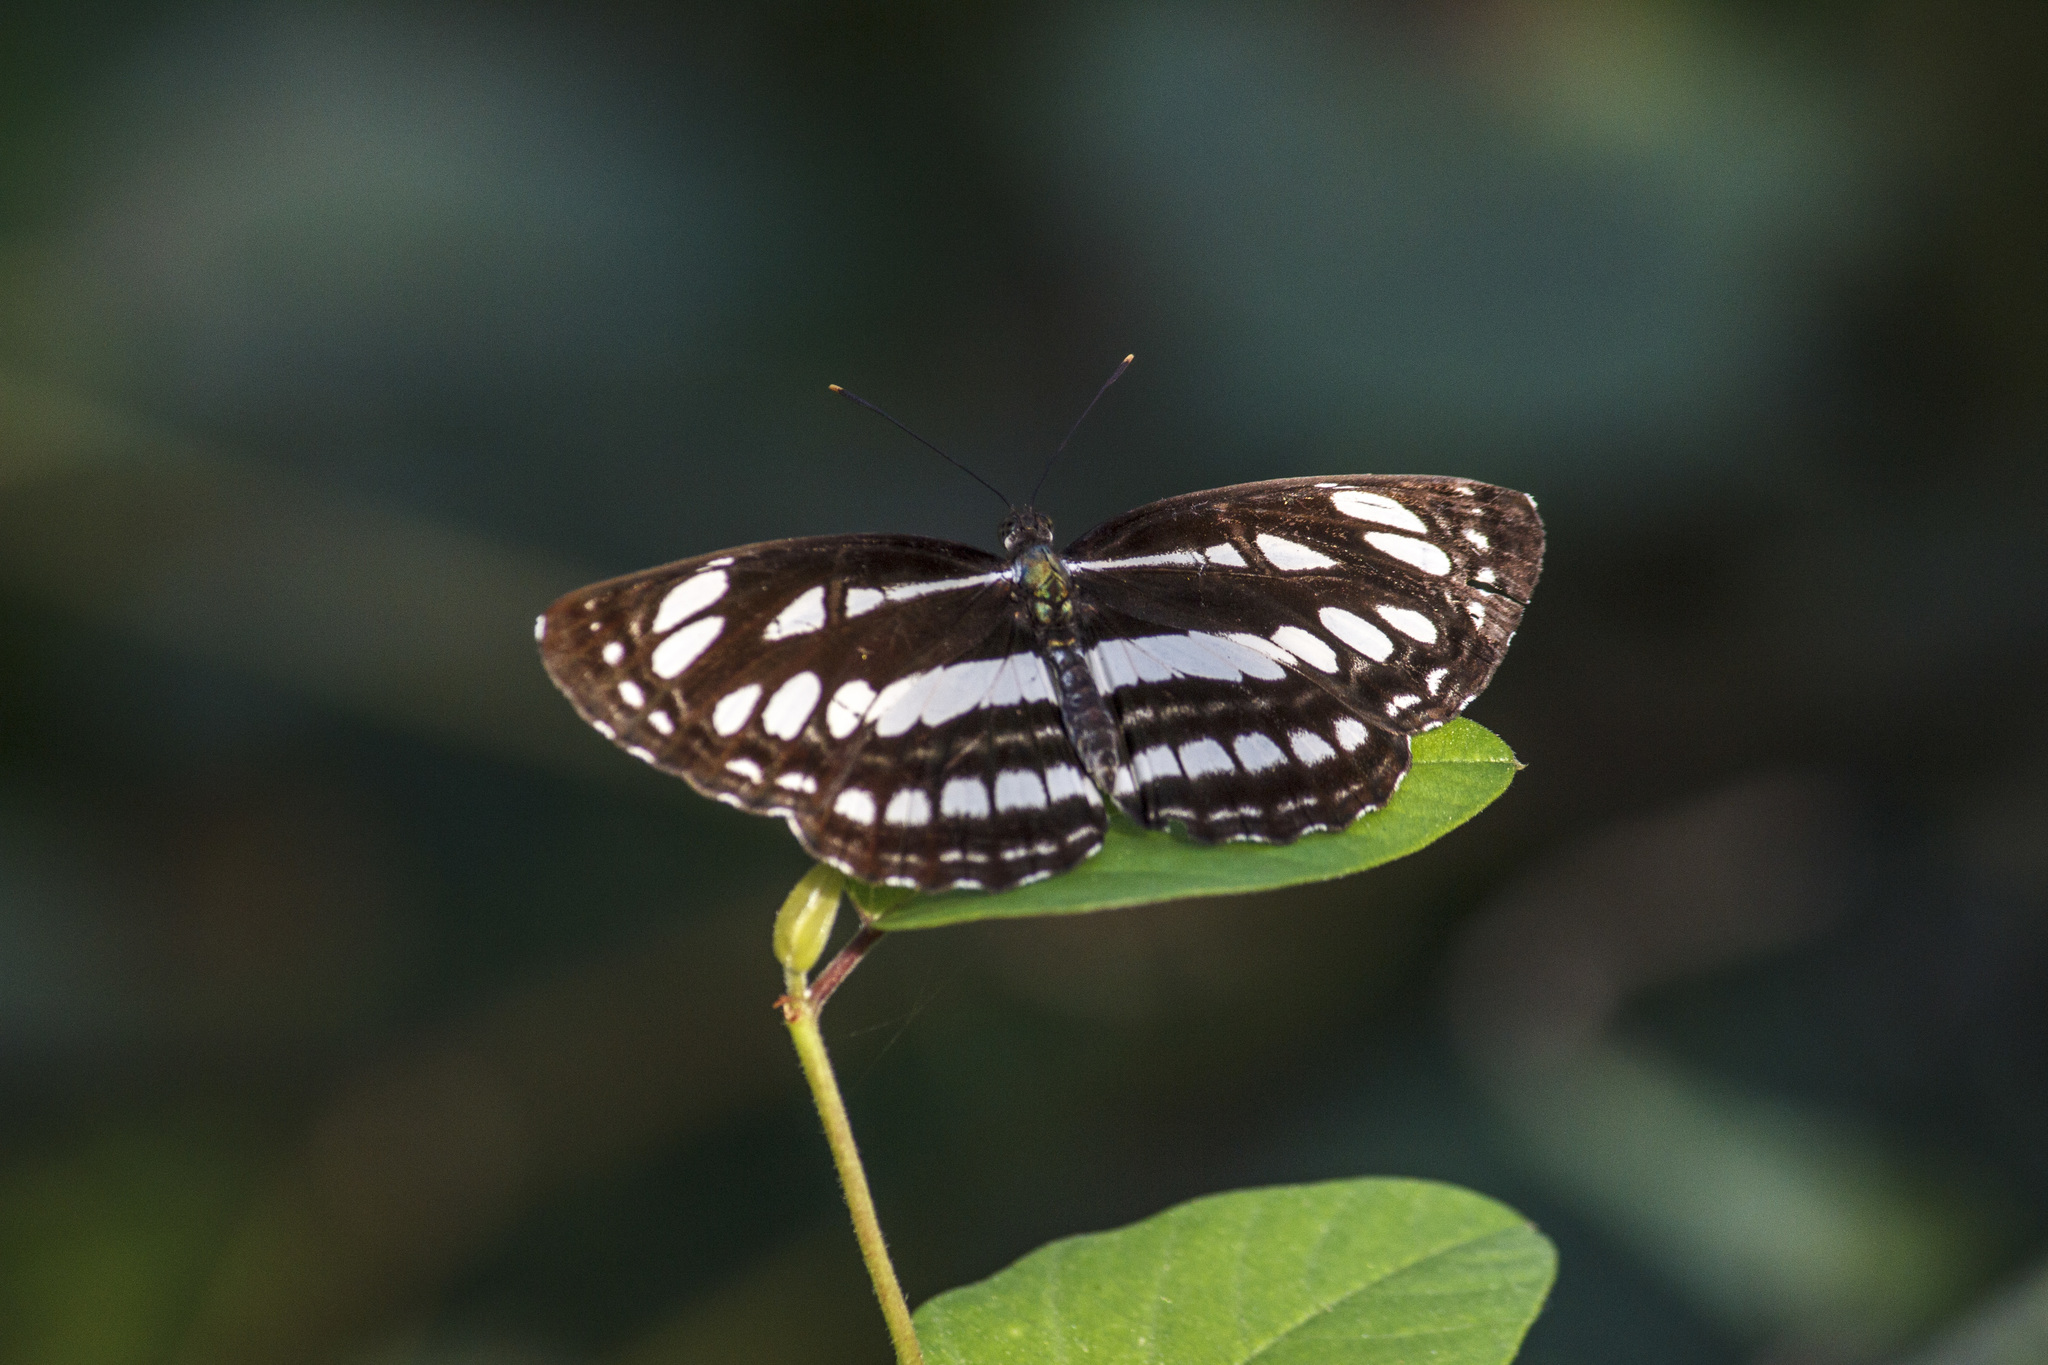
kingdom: Animalia
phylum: Arthropoda
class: Insecta
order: Lepidoptera
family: Nymphalidae
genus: Neptis
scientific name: Neptis hylas
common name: Common sailer
